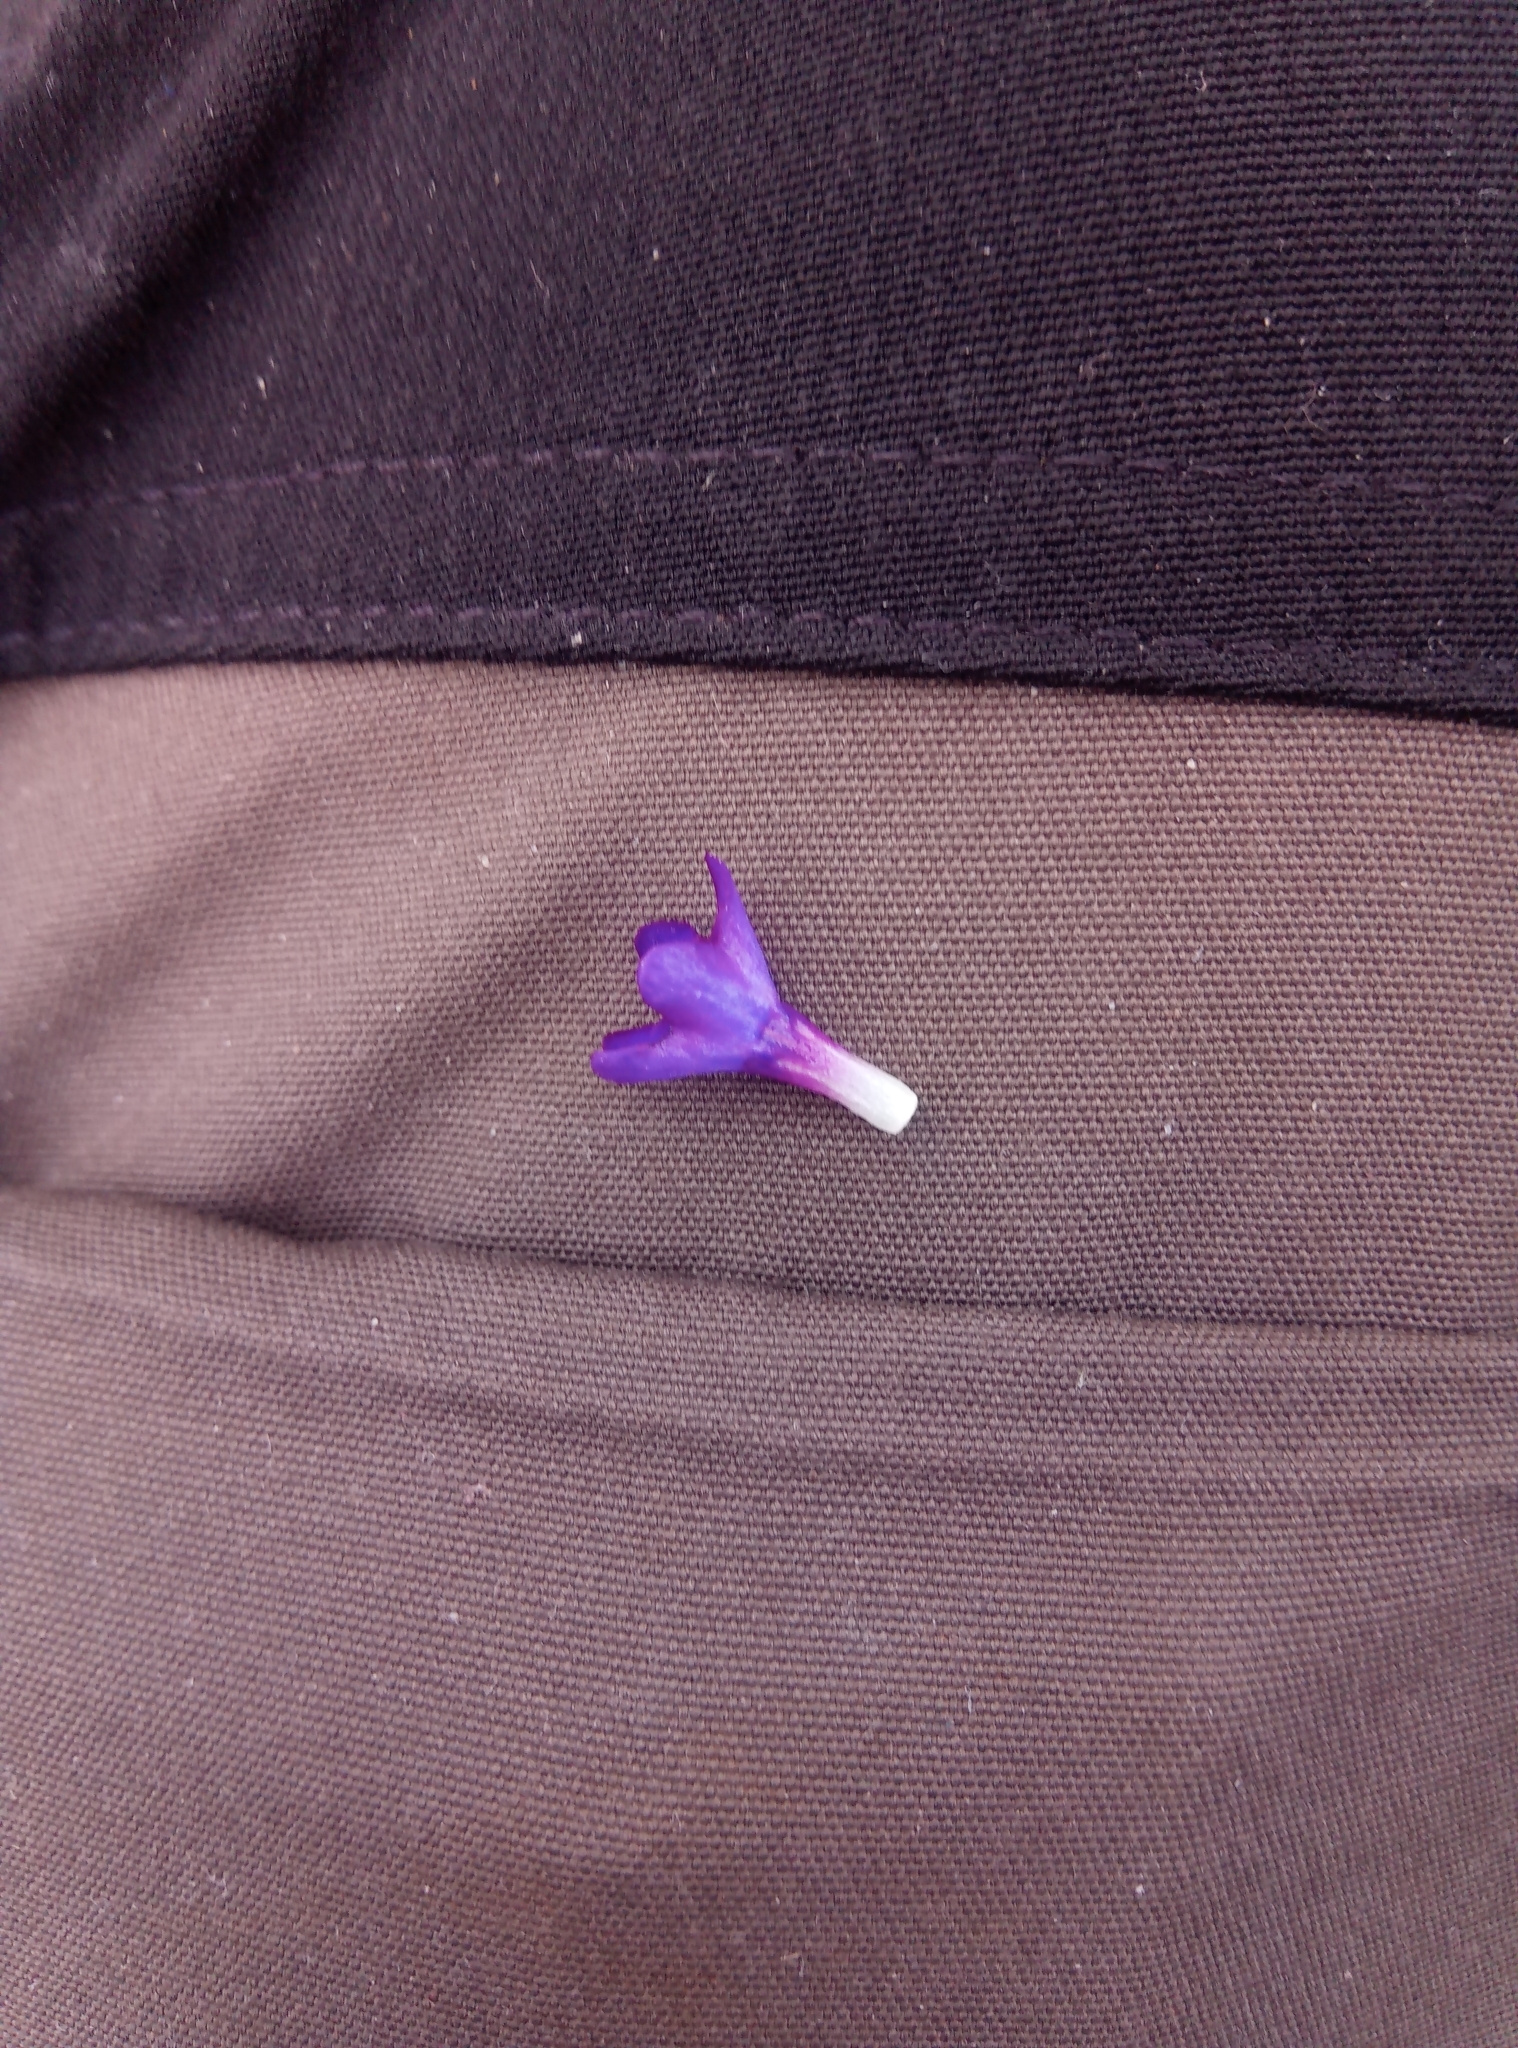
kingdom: Plantae
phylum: Tracheophyta
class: Magnoliopsida
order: Boraginales
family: Boraginaceae
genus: Anchusa
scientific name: Anchusa officinalis
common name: Alkanet
